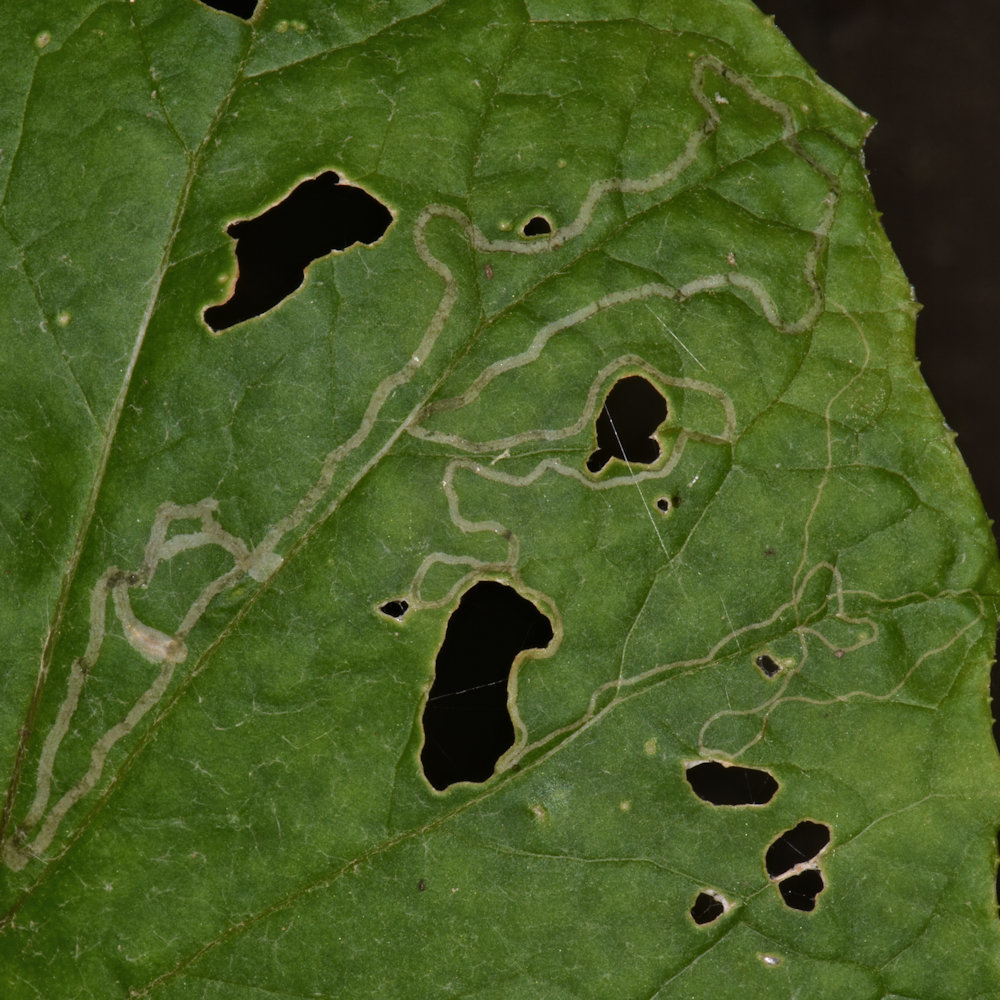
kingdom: Animalia
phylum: Arthropoda
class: Insecta
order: Lepidoptera
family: Gracillariidae
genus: Phyllocnistis
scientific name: Phyllocnistis insignis
